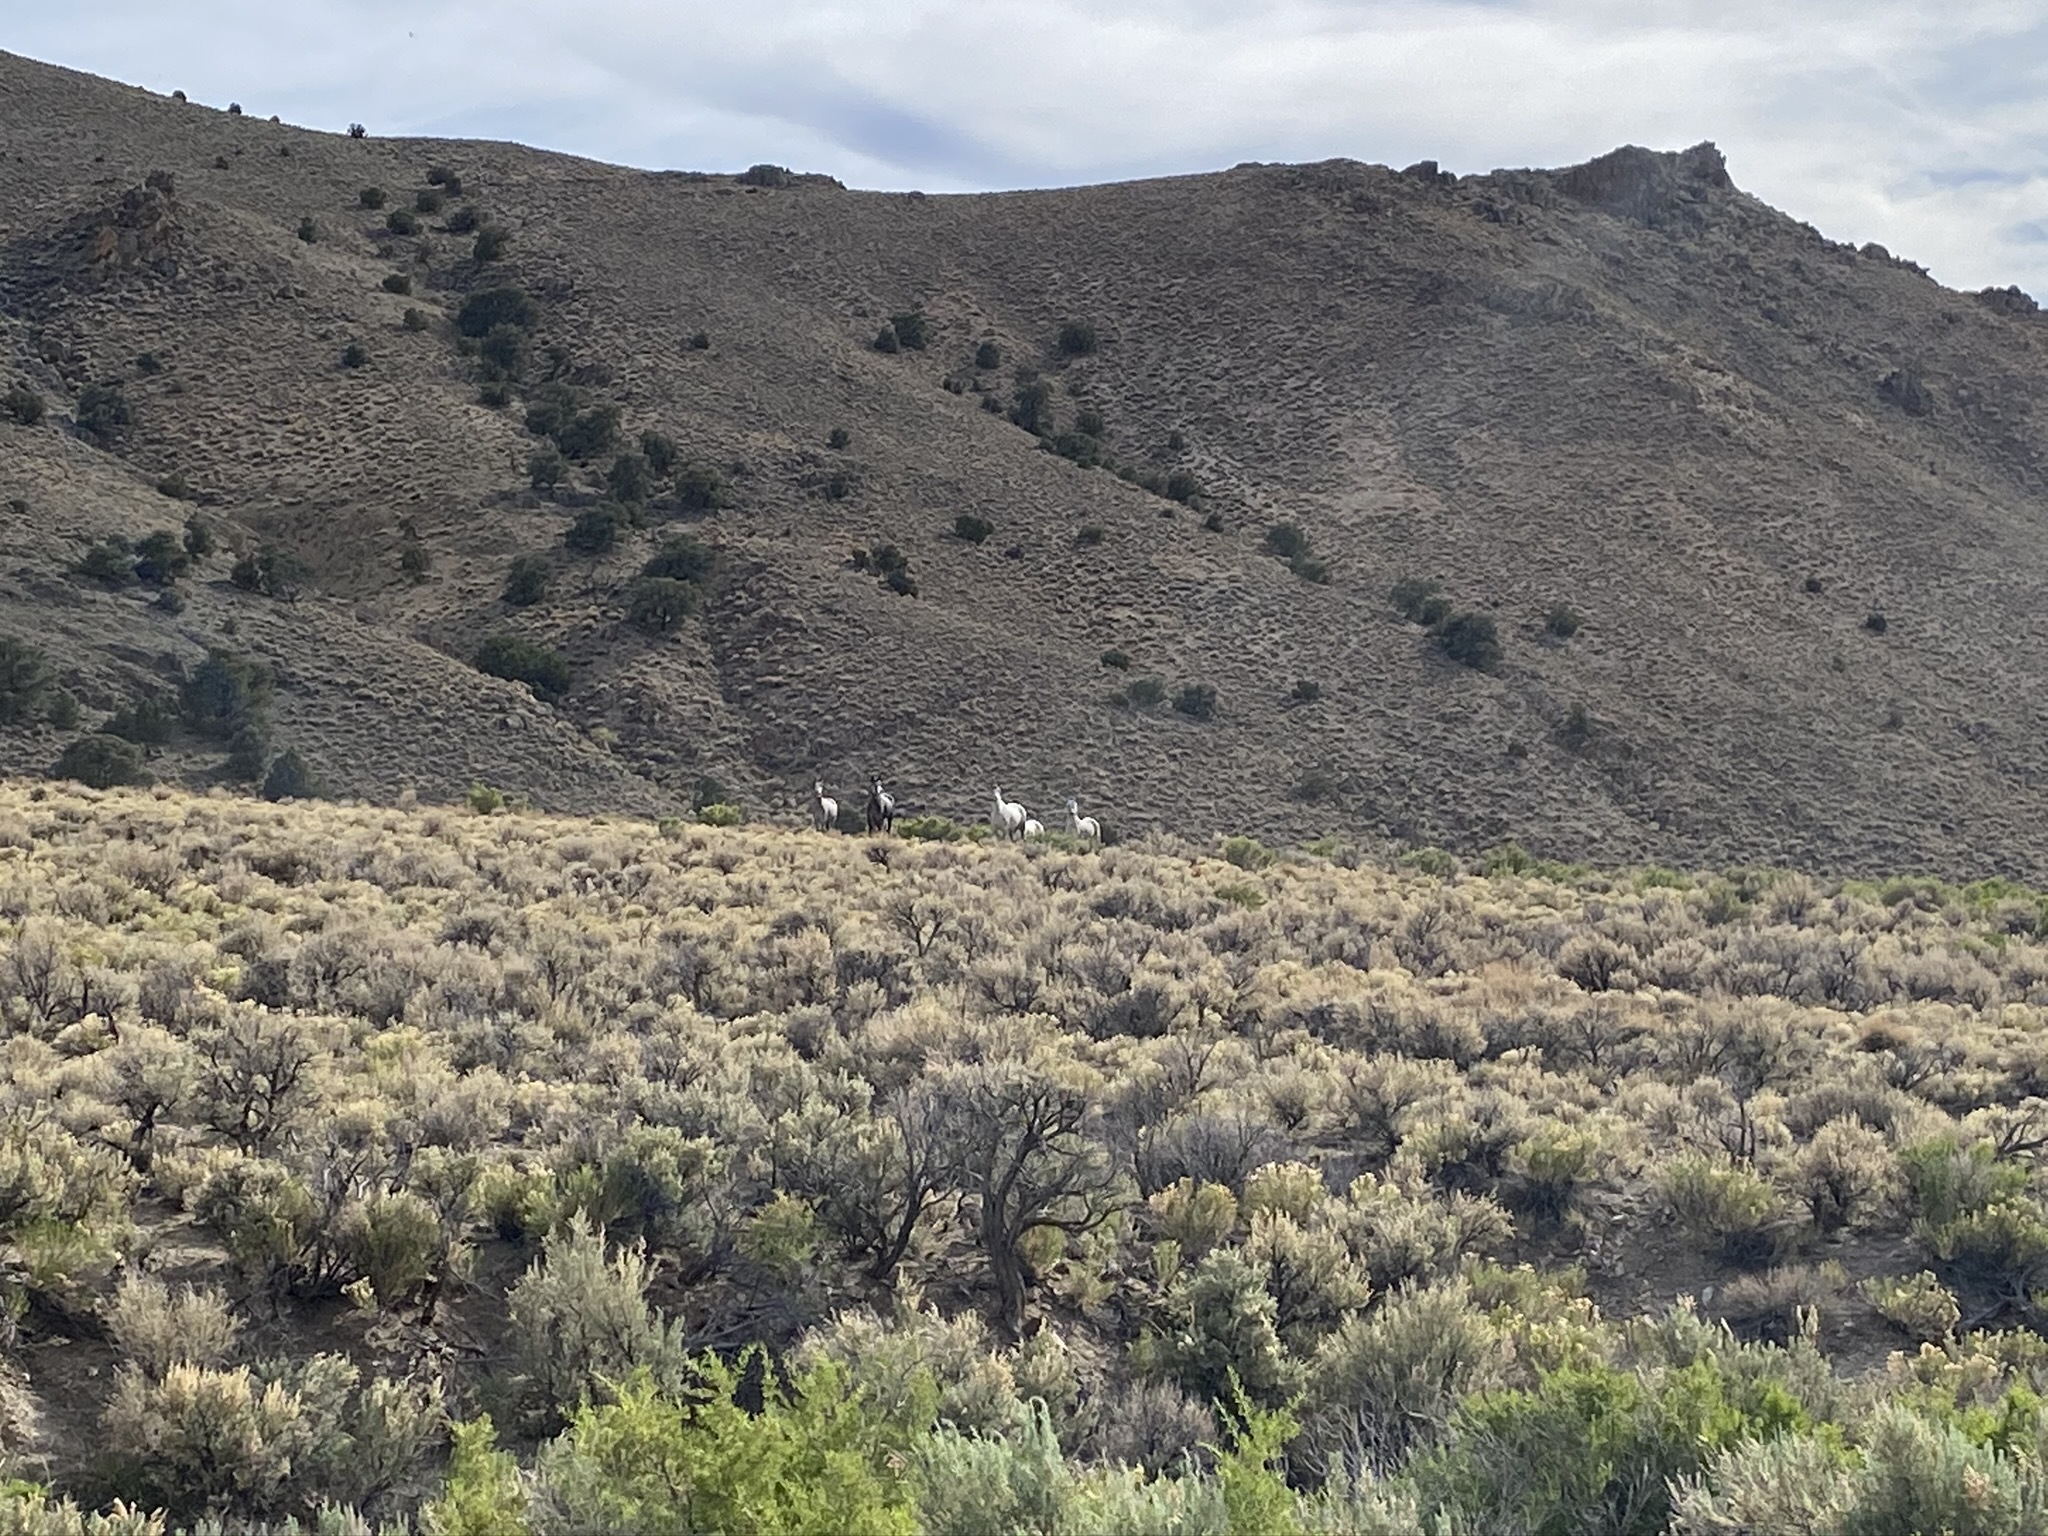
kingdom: Animalia
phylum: Chordata
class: Mammalia
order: Perissodactyla
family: Equidae
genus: Equus
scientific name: Equus caballus
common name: Horse
